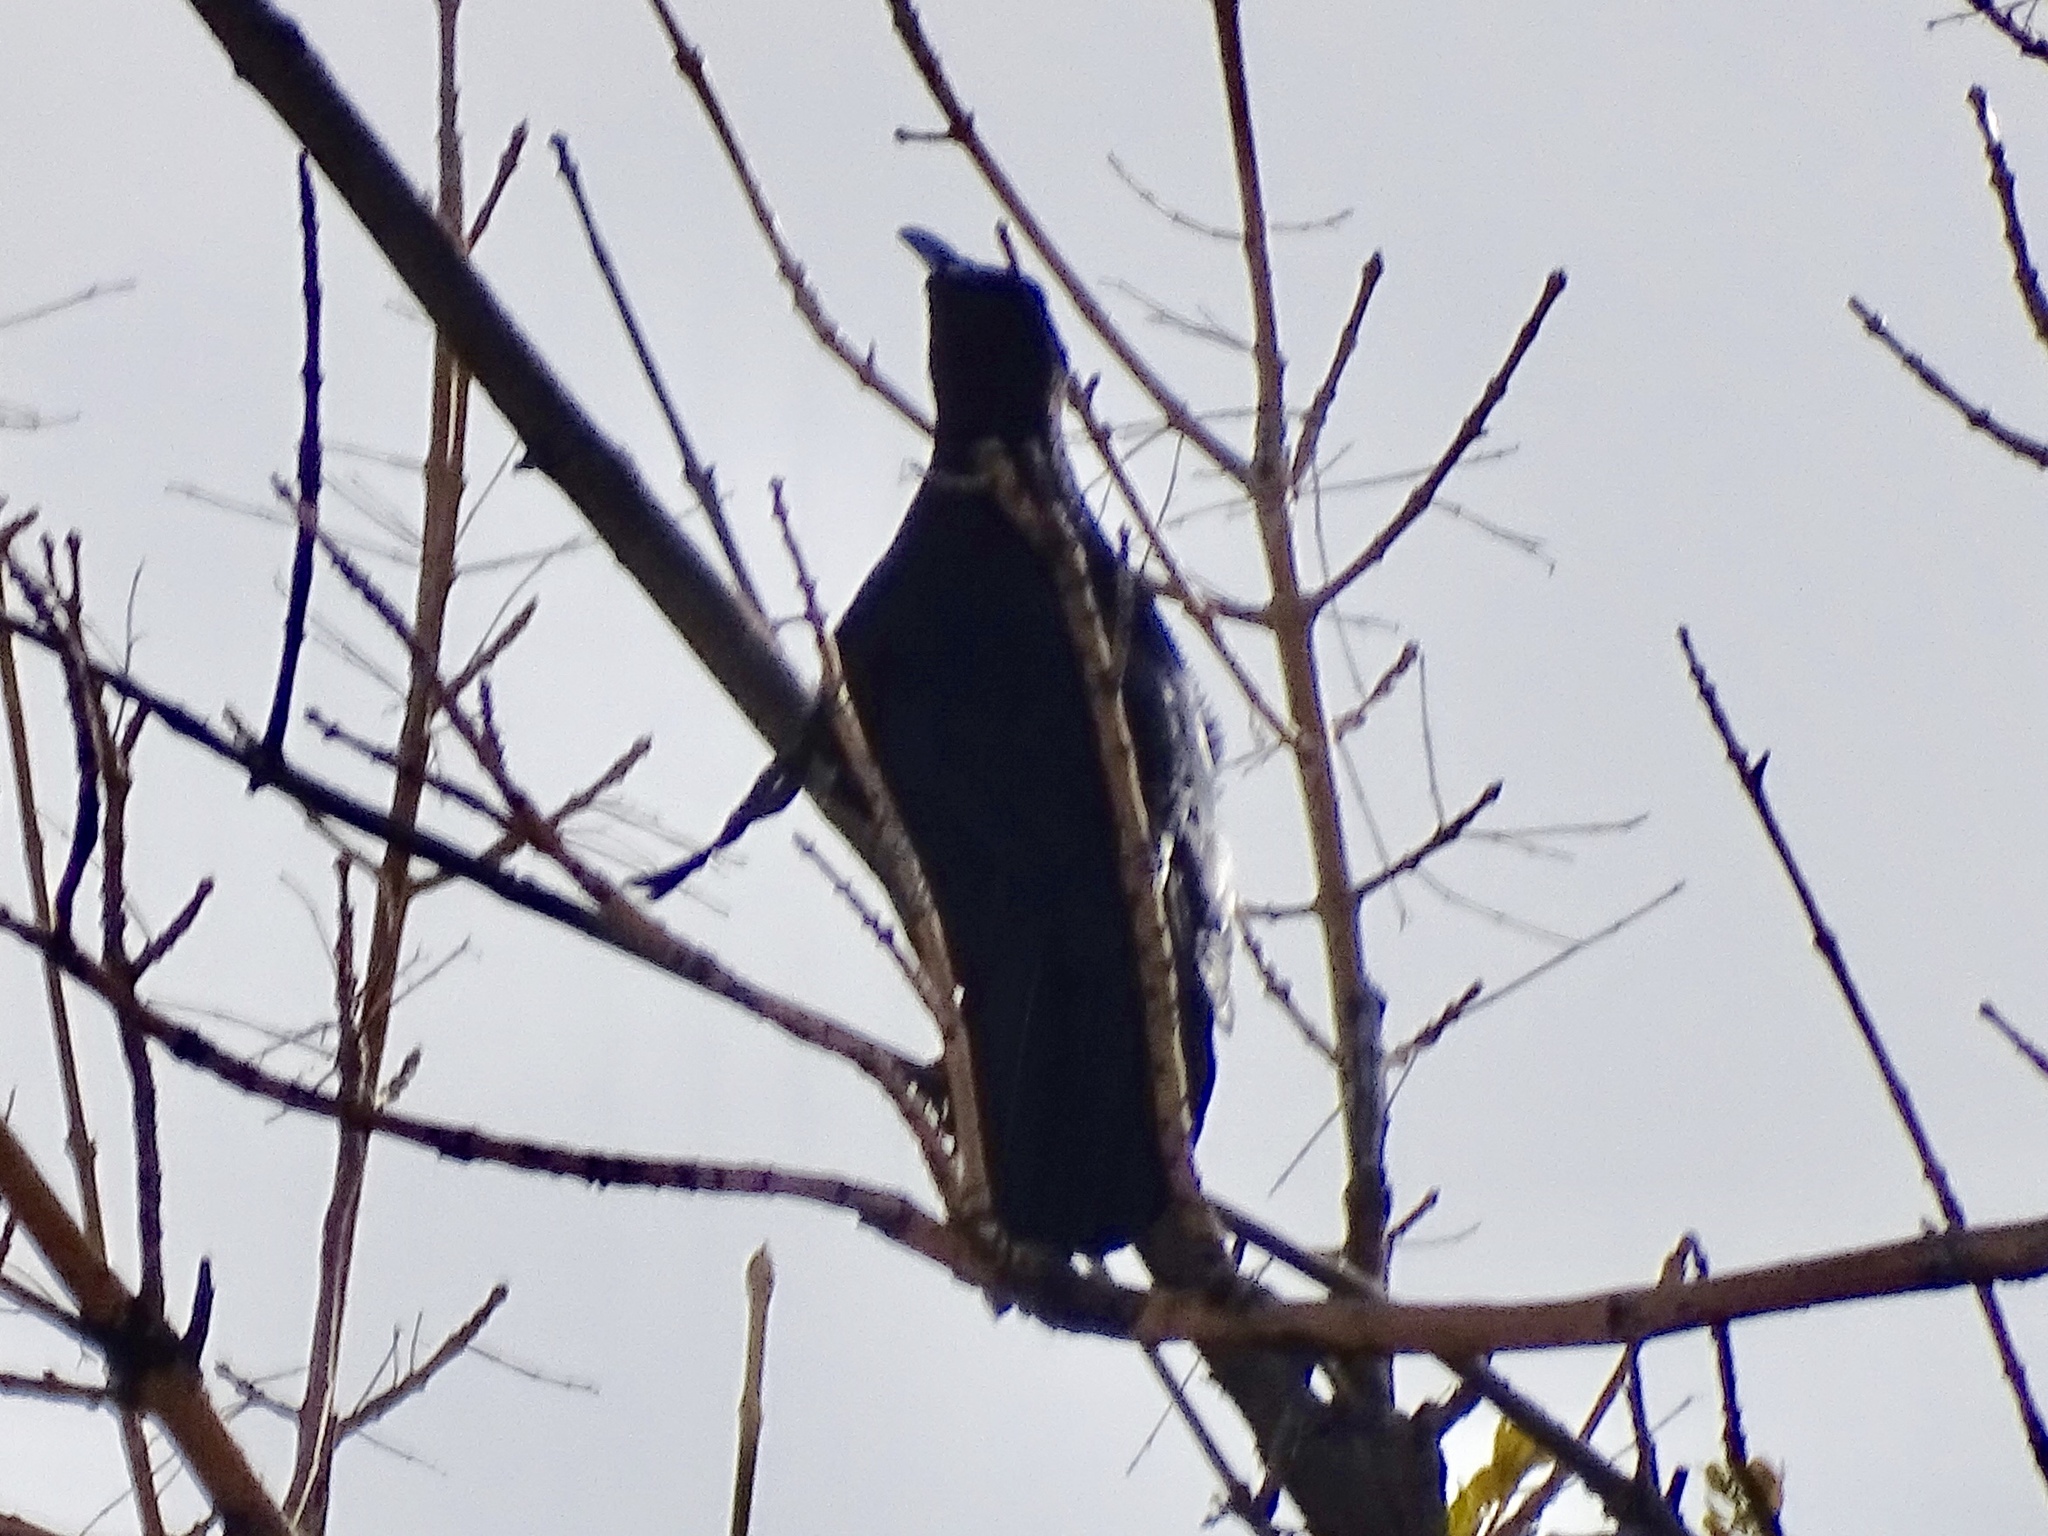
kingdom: Animalia
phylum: Chordata
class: Aves
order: Passeriformes
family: Icteridae
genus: Quiscalus
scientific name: Quiscalus mexicanus
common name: Great-tailed grackle
